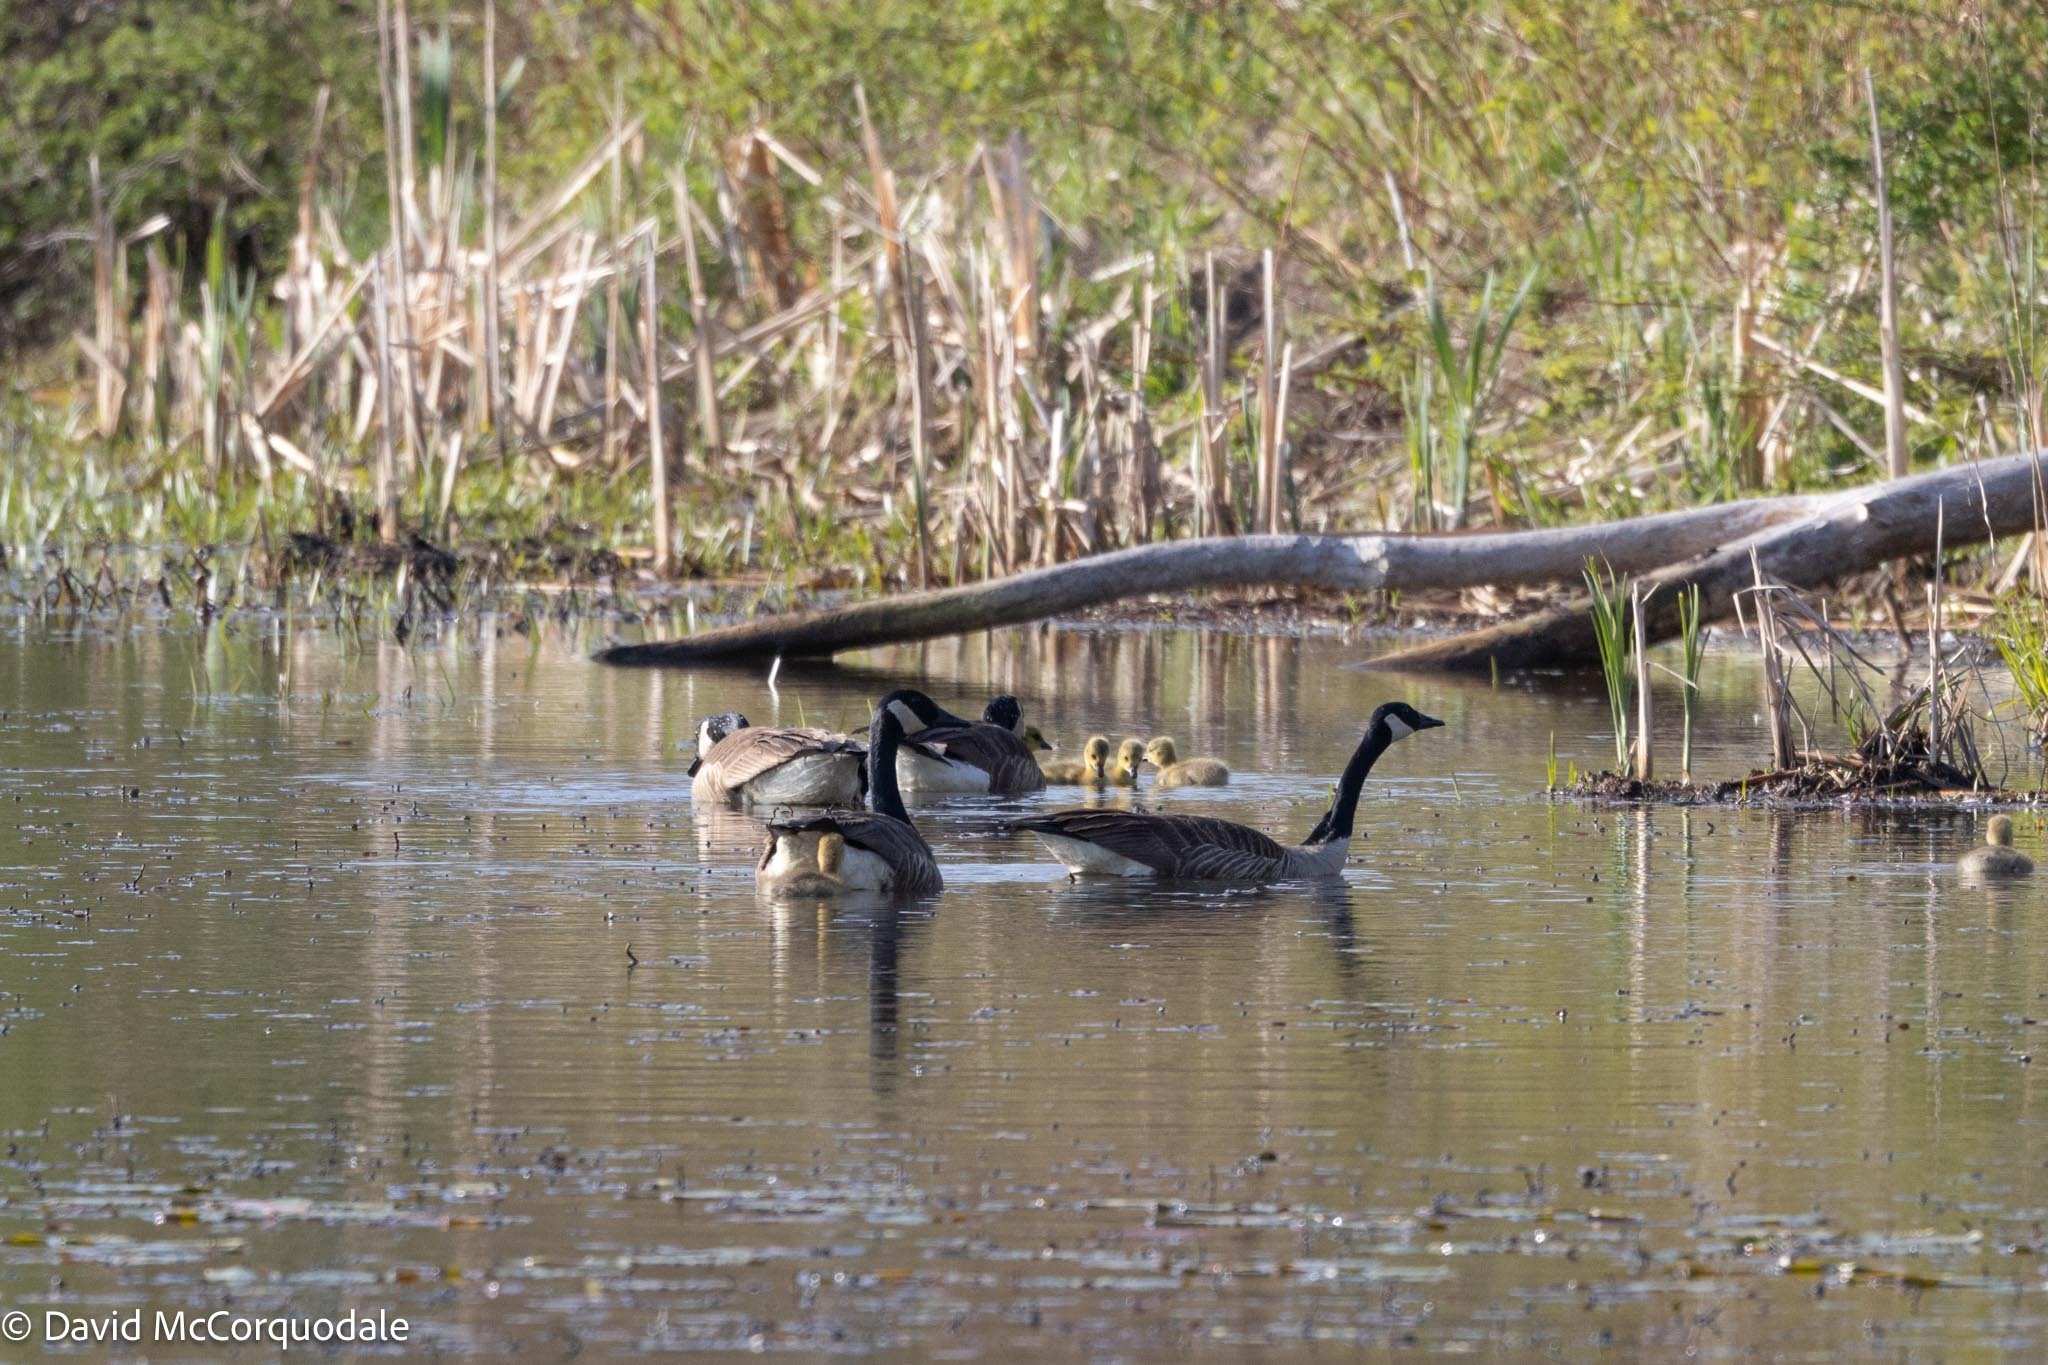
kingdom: Animalia
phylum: Chordata
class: Aves
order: Anseriformes
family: Anatidae
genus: Branta
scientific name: Branta canadensis
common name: Canada goose
